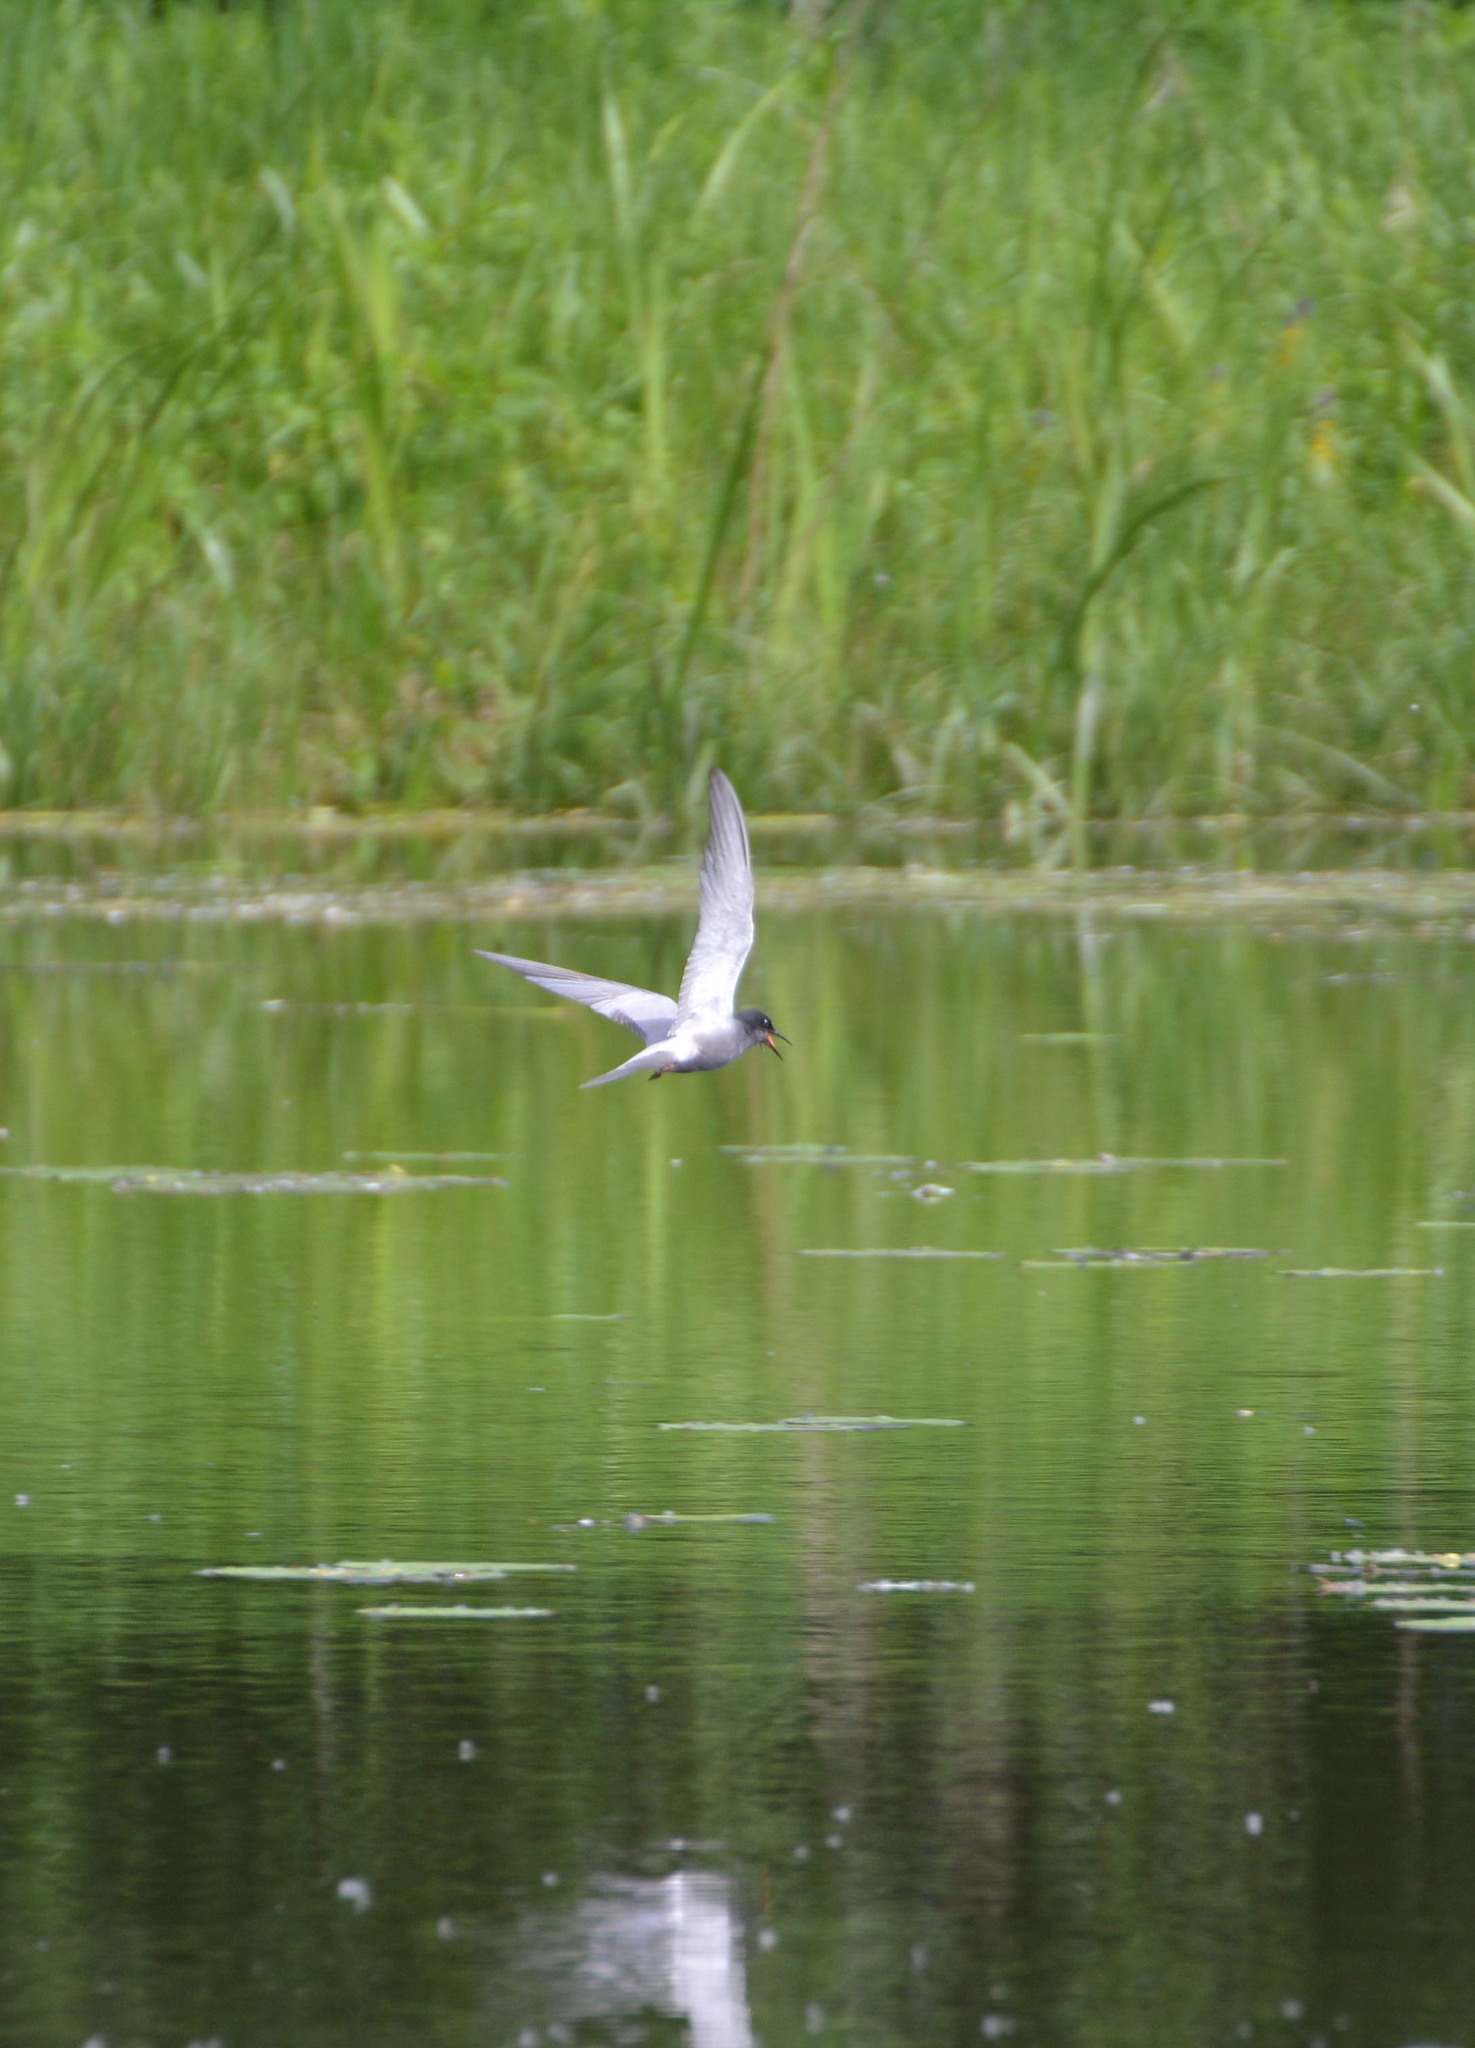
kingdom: Animalia
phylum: Chordata
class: Aves
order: Charadriiformes
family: Laridae
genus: Chlidonias
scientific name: Chlidonias niger
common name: Black tern
